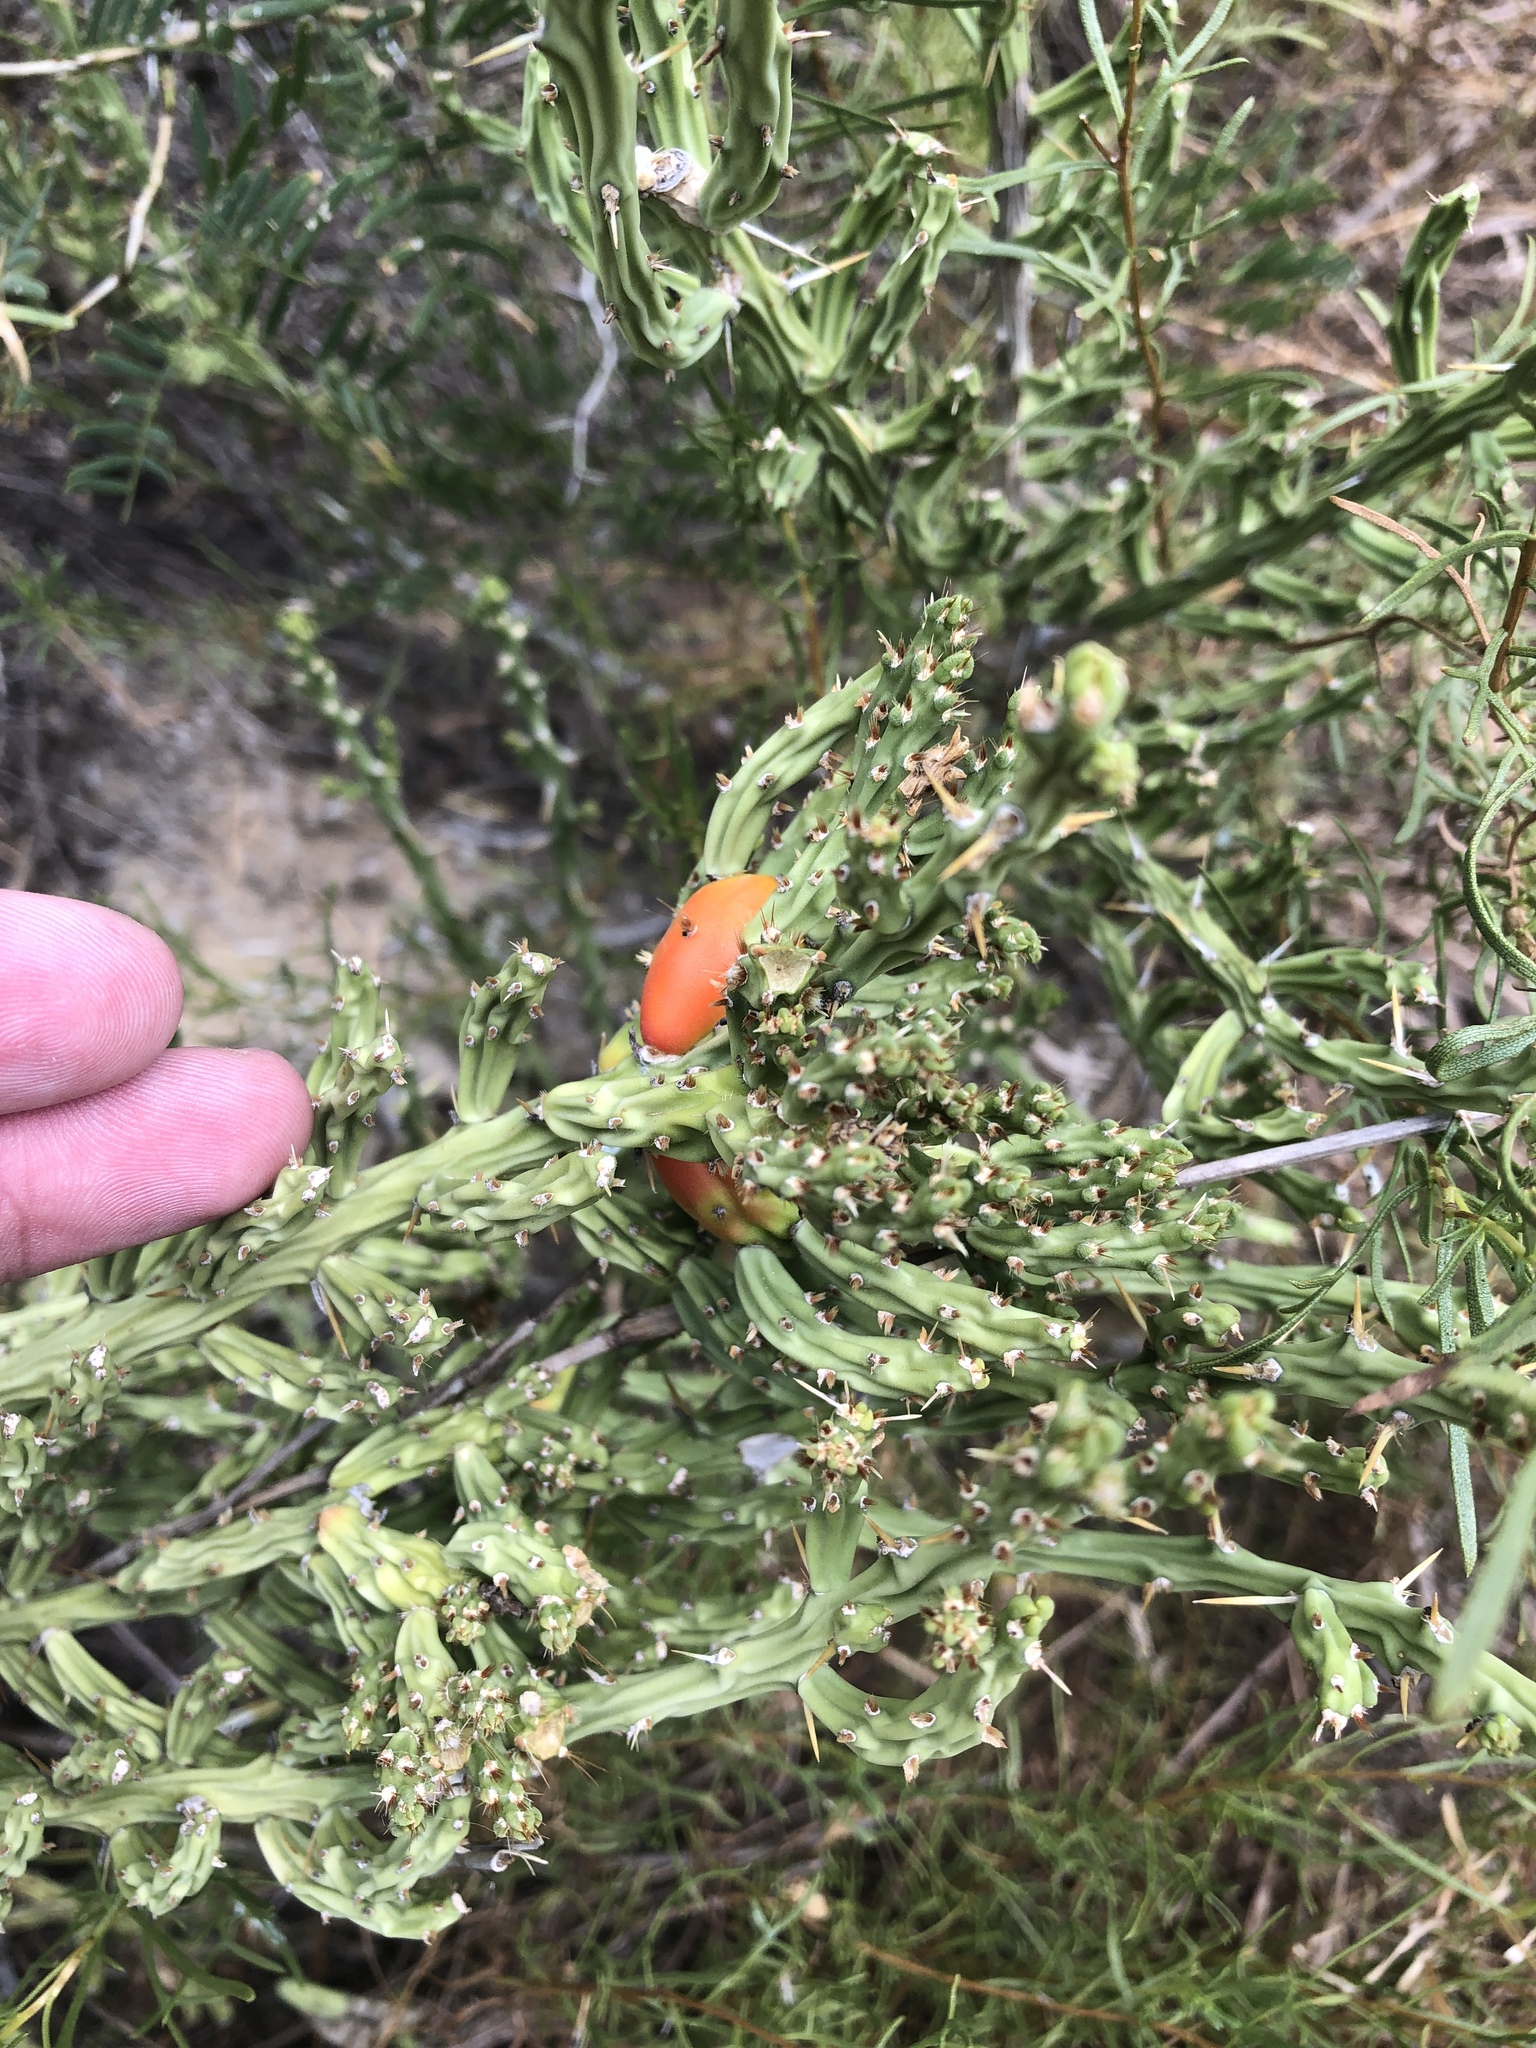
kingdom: Plantae
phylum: Tracheophyta
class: Magnoliopsida
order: Caryophyllales
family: Cactaceae
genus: Cylindropuntia
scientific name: Cylindropuntia leptocaulis
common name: Christmas cactus
